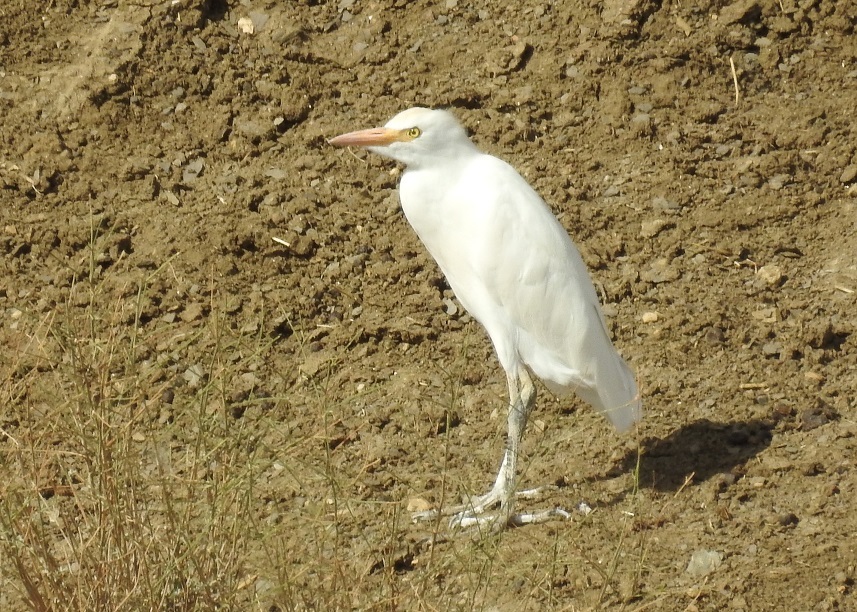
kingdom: Animalia
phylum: Chordata
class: Aves
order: Pelecaniformes
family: Ardeidae
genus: Bubulcus
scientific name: Bubulcus ibis
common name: Cattle egret
